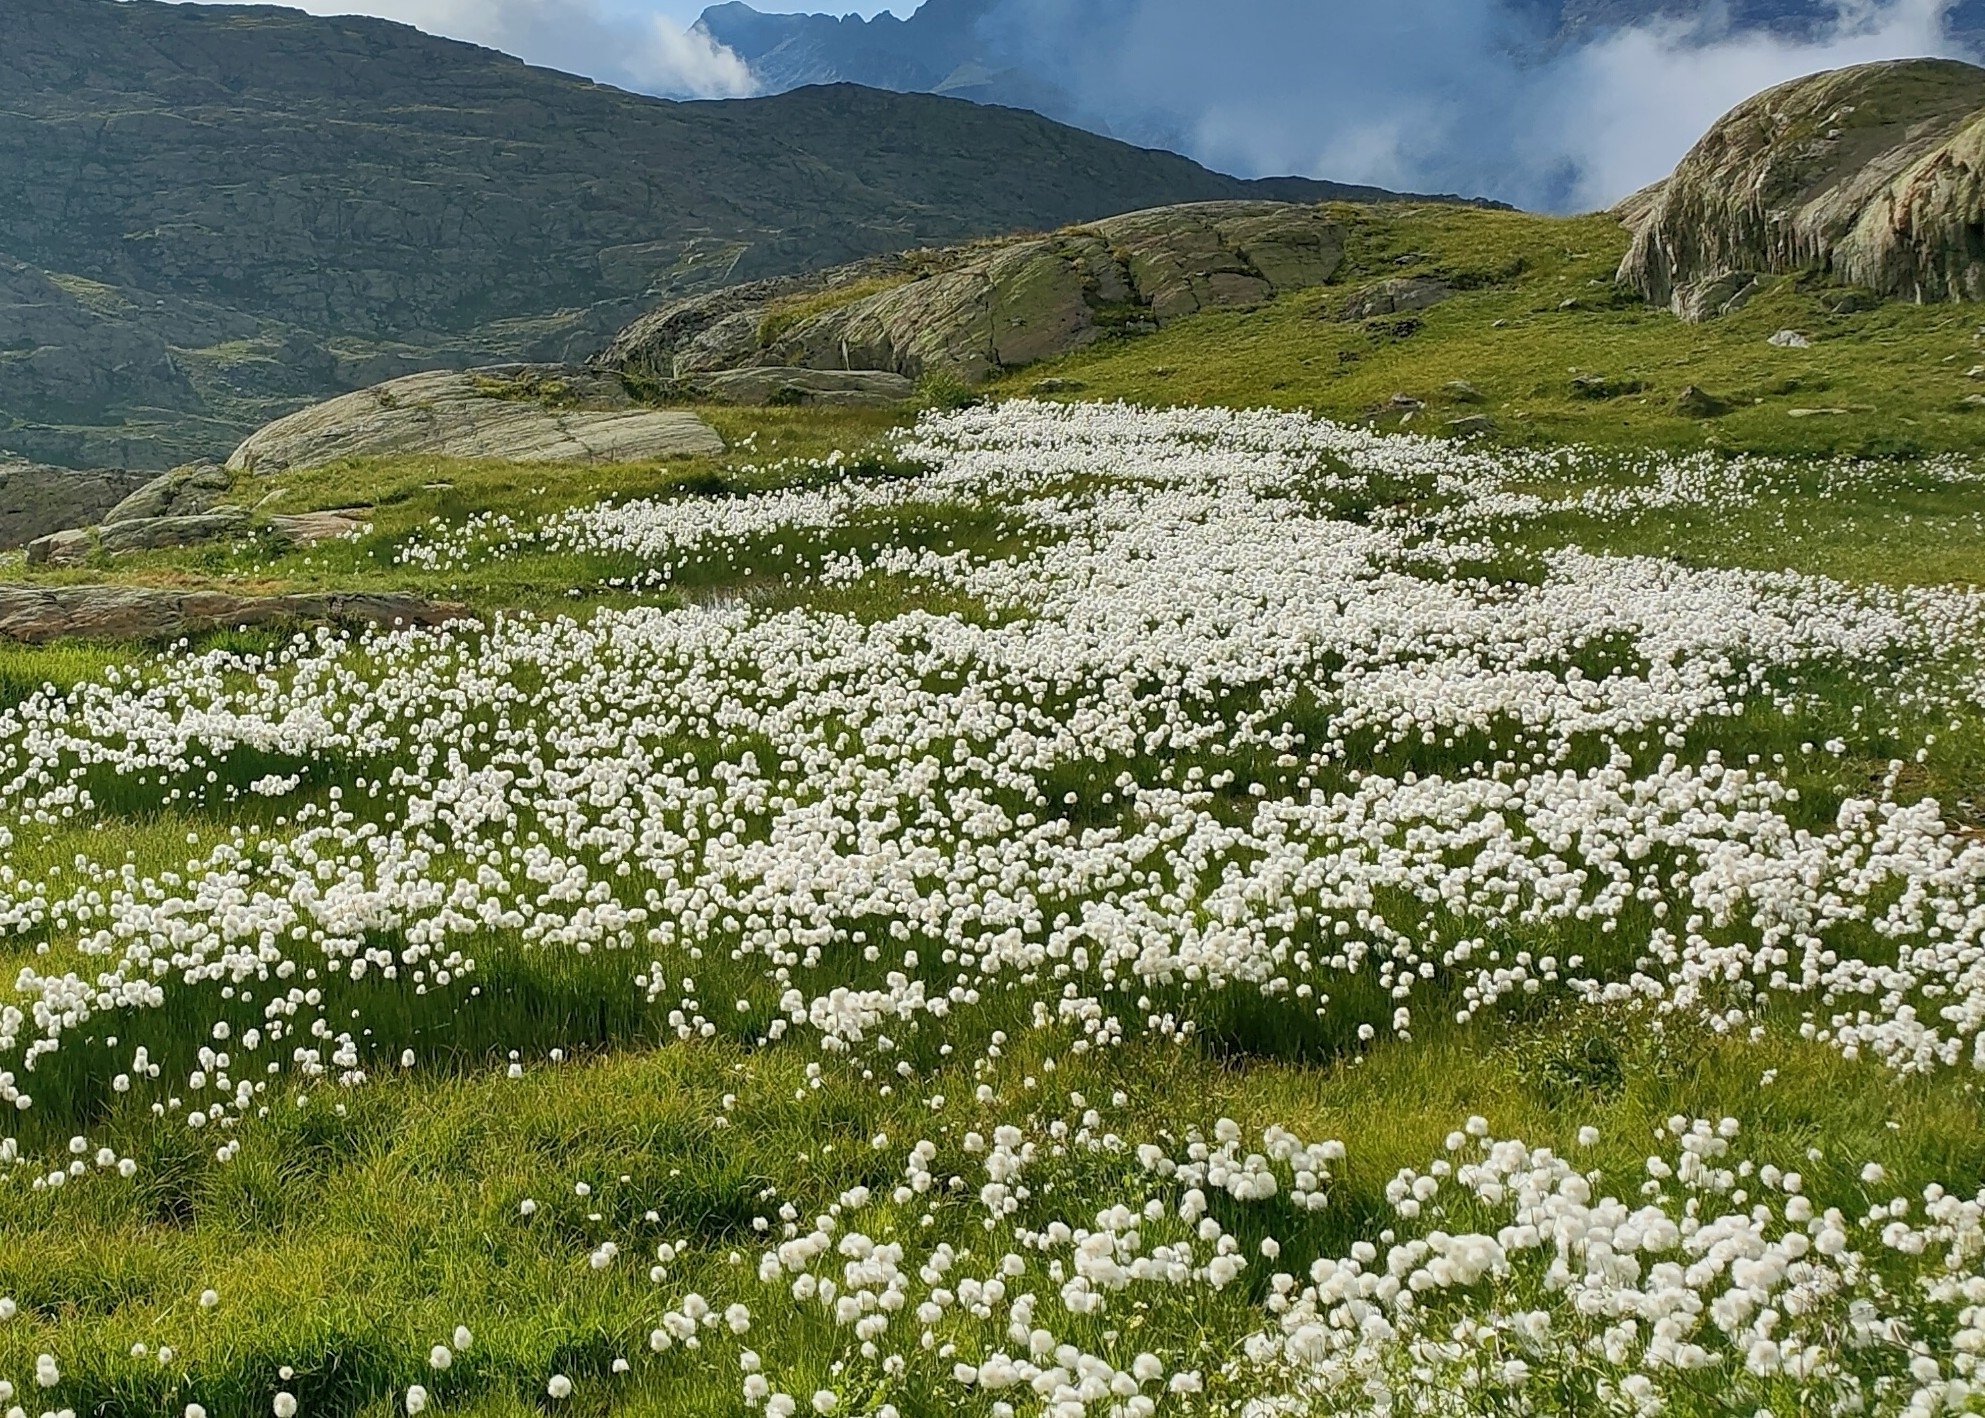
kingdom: Plantae
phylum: Tracheophyta
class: Liliopsida
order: Poales
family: Cyperaceae
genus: Eriophorum
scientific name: Eriophorum scheuchzeri
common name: Scheuchzer's cottongrass
